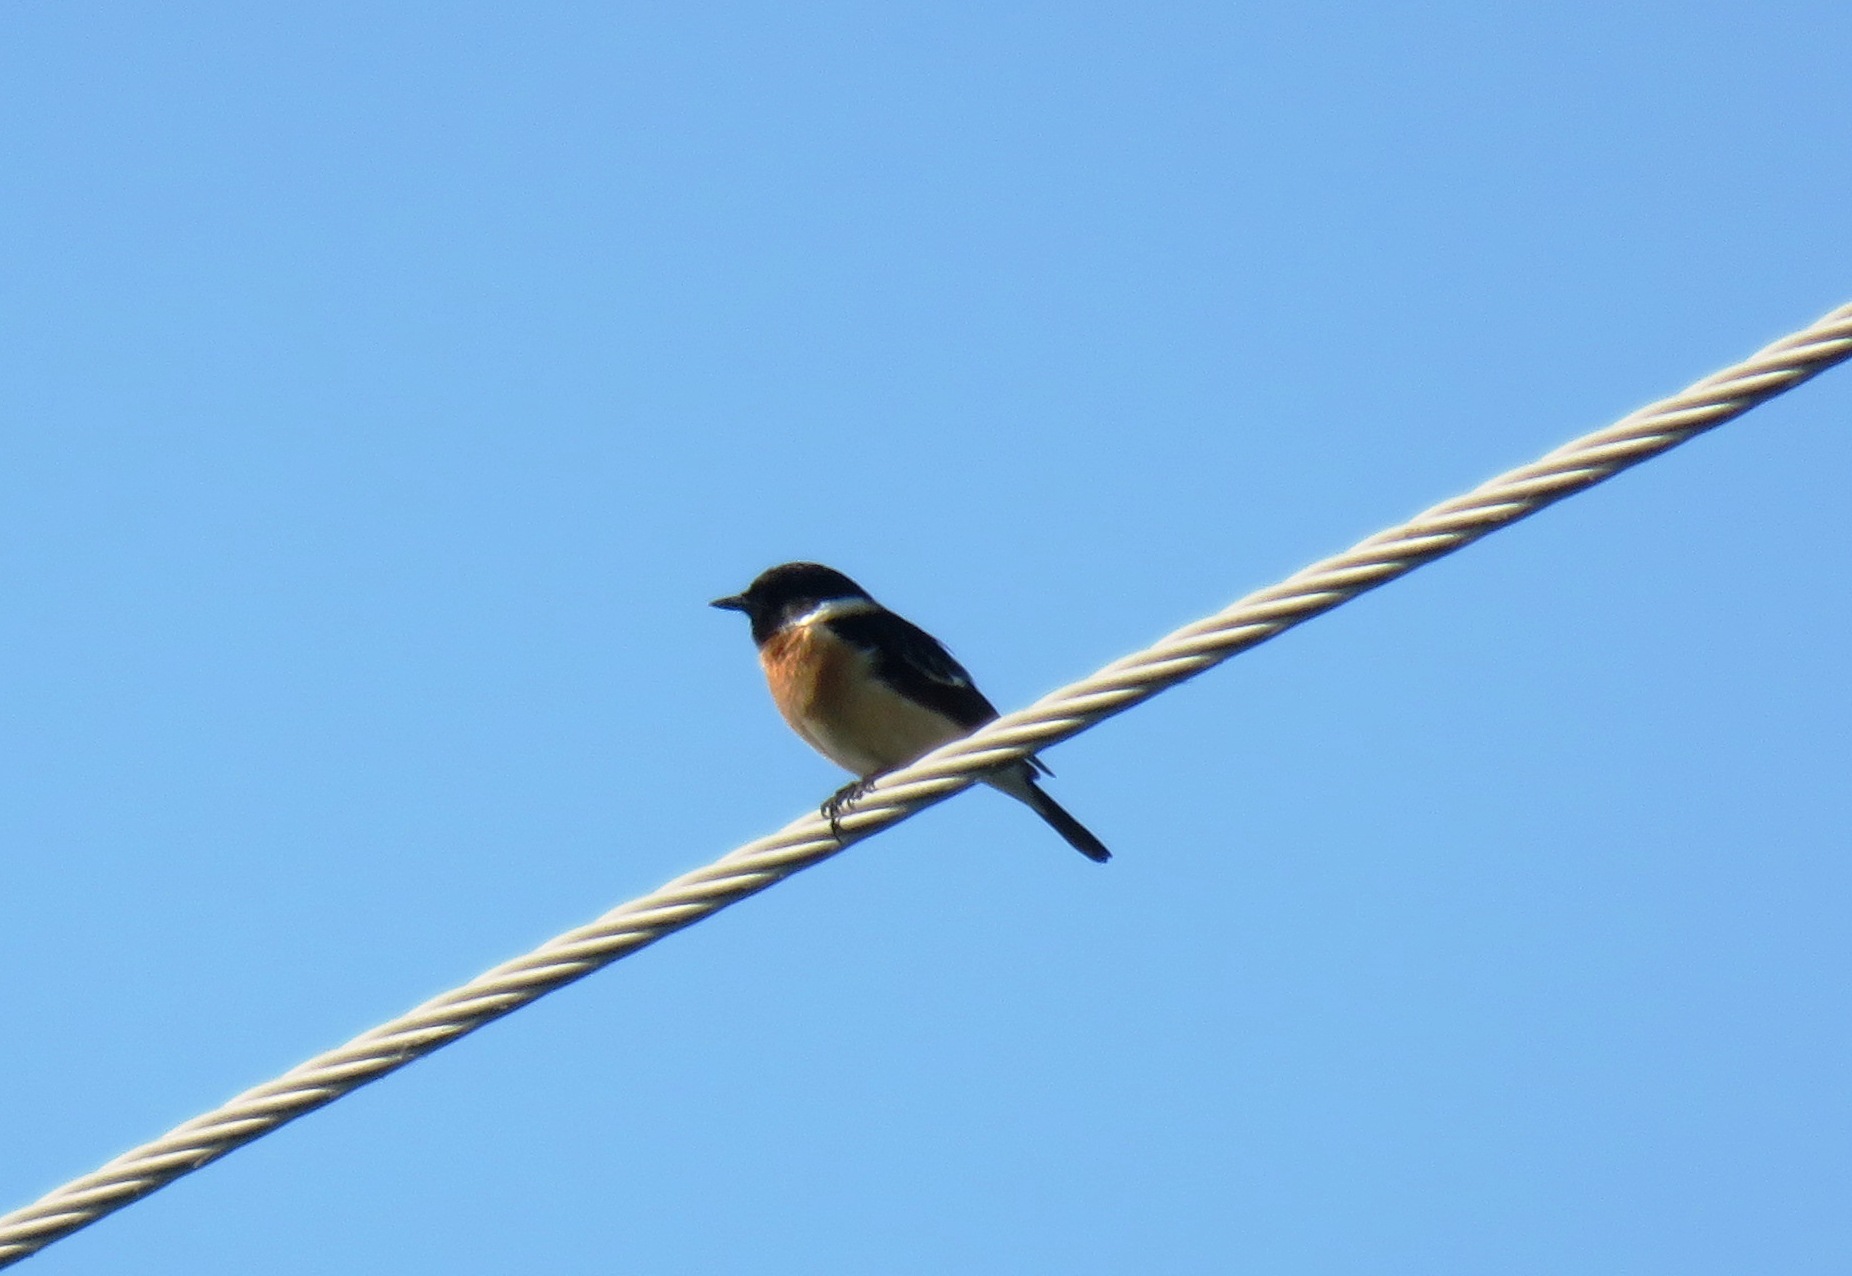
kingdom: Animalia
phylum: Chordata
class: Aves
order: Passeriformes
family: Muscicapidae
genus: Saxicola
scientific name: Saxicola maurus
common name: Siberian stonechat
